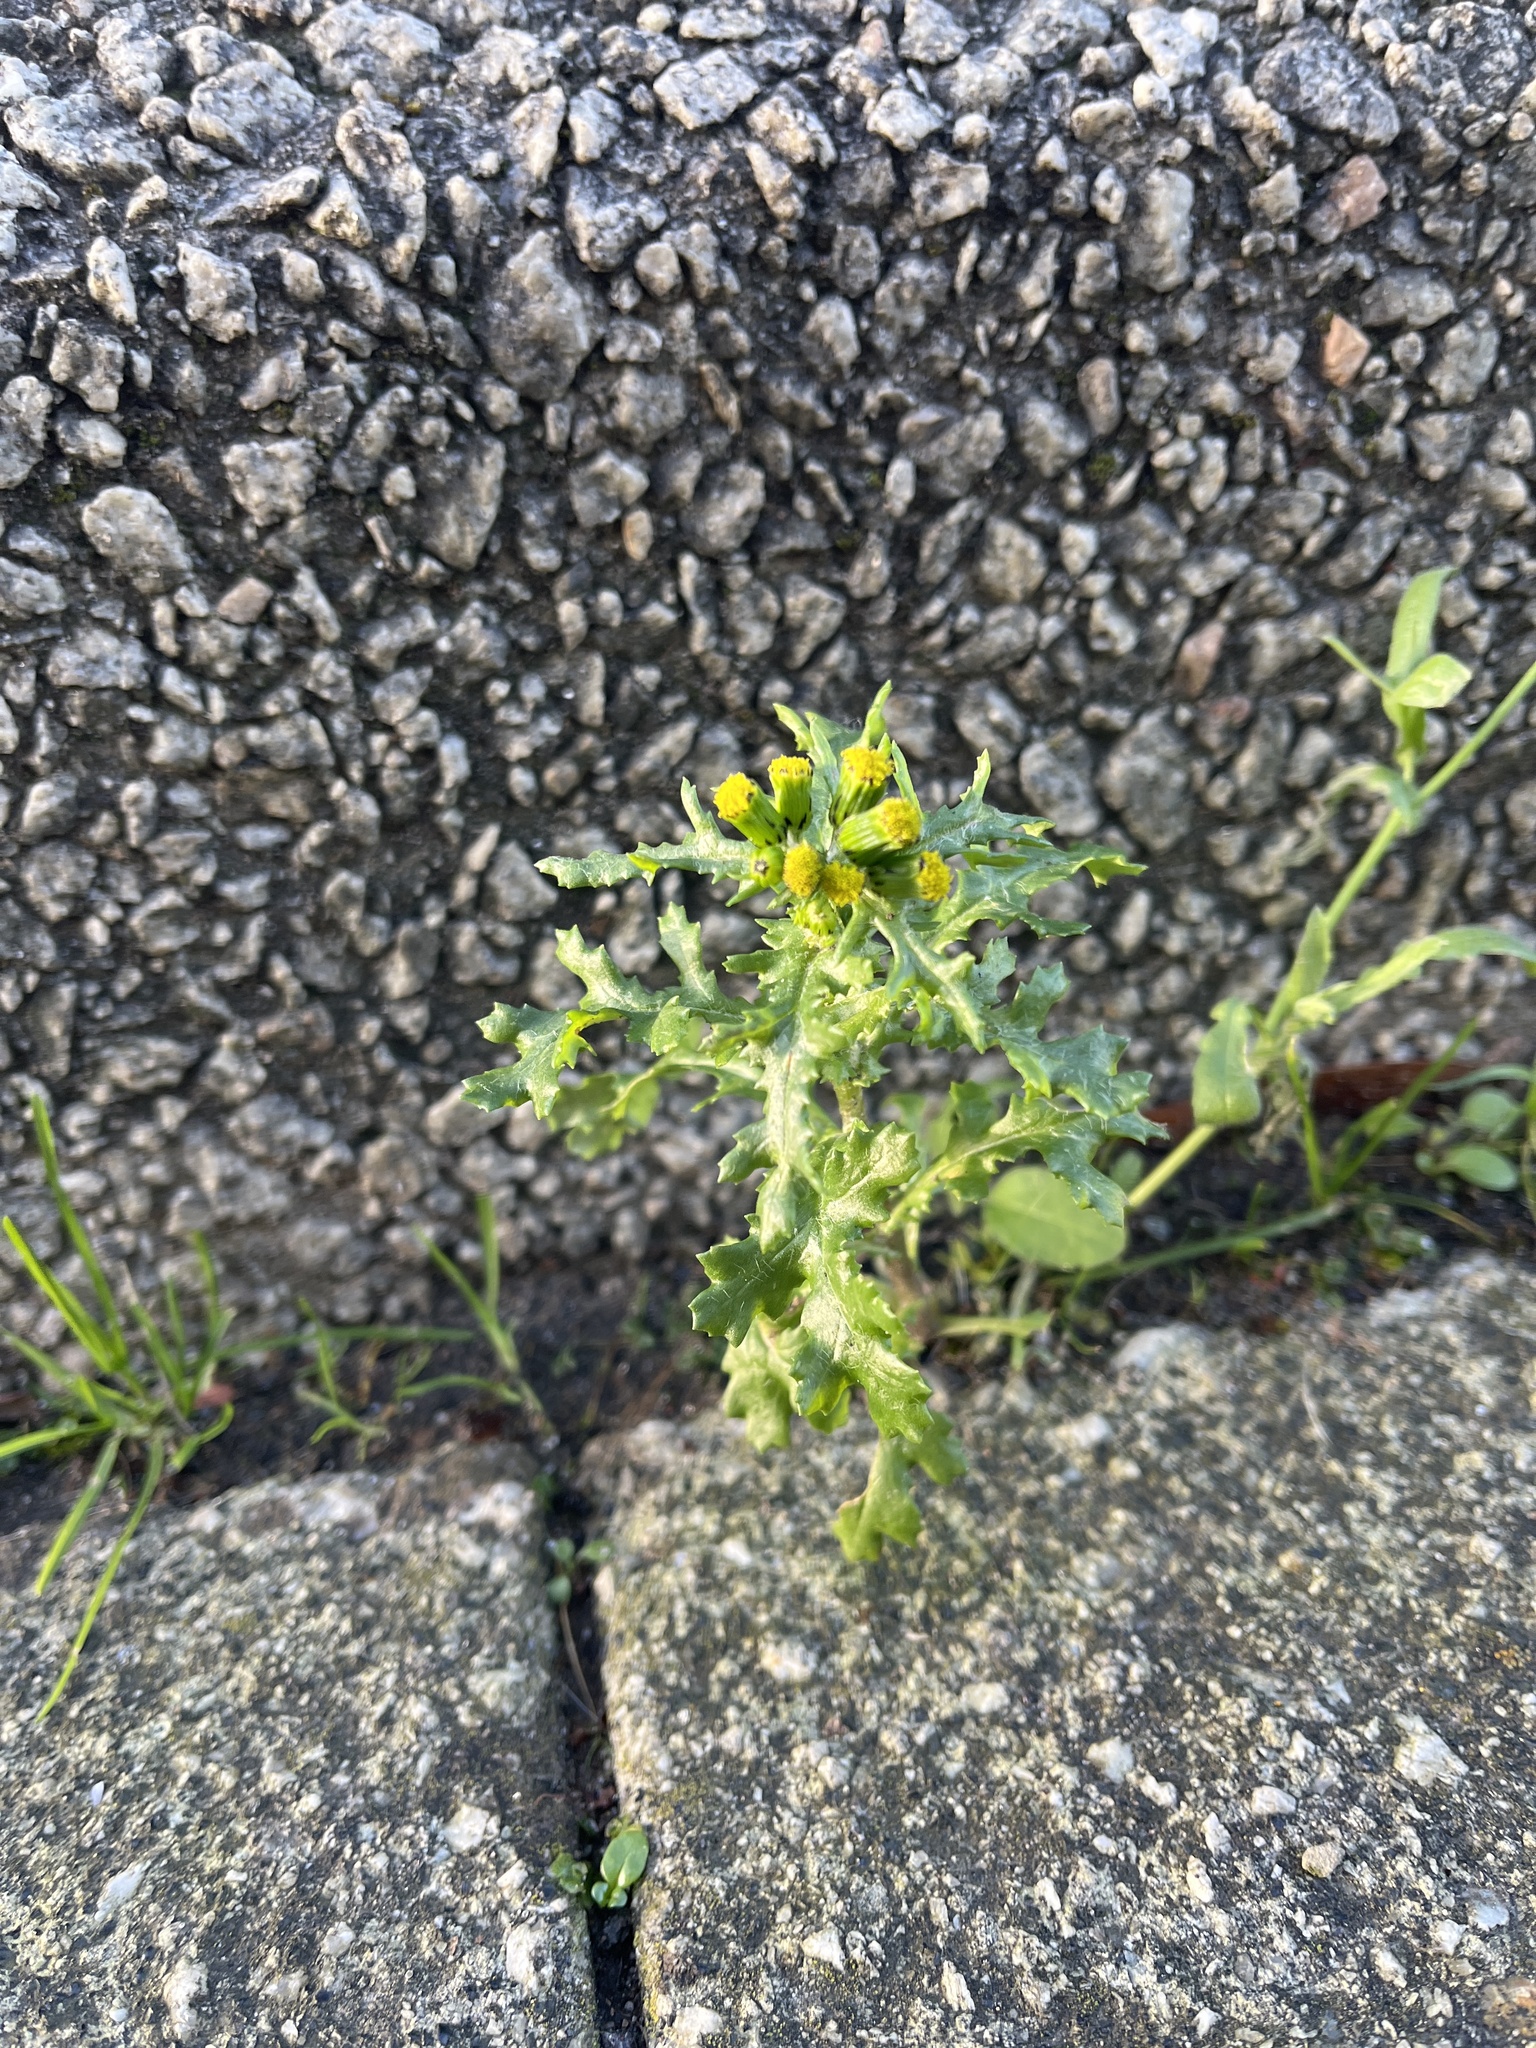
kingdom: Plantae
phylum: Tracheophyta
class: Magnoliopsida
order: Asterales
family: Asteraceae
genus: Senecio
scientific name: Senecio vulgaris
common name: Old-man-in-the-spring
